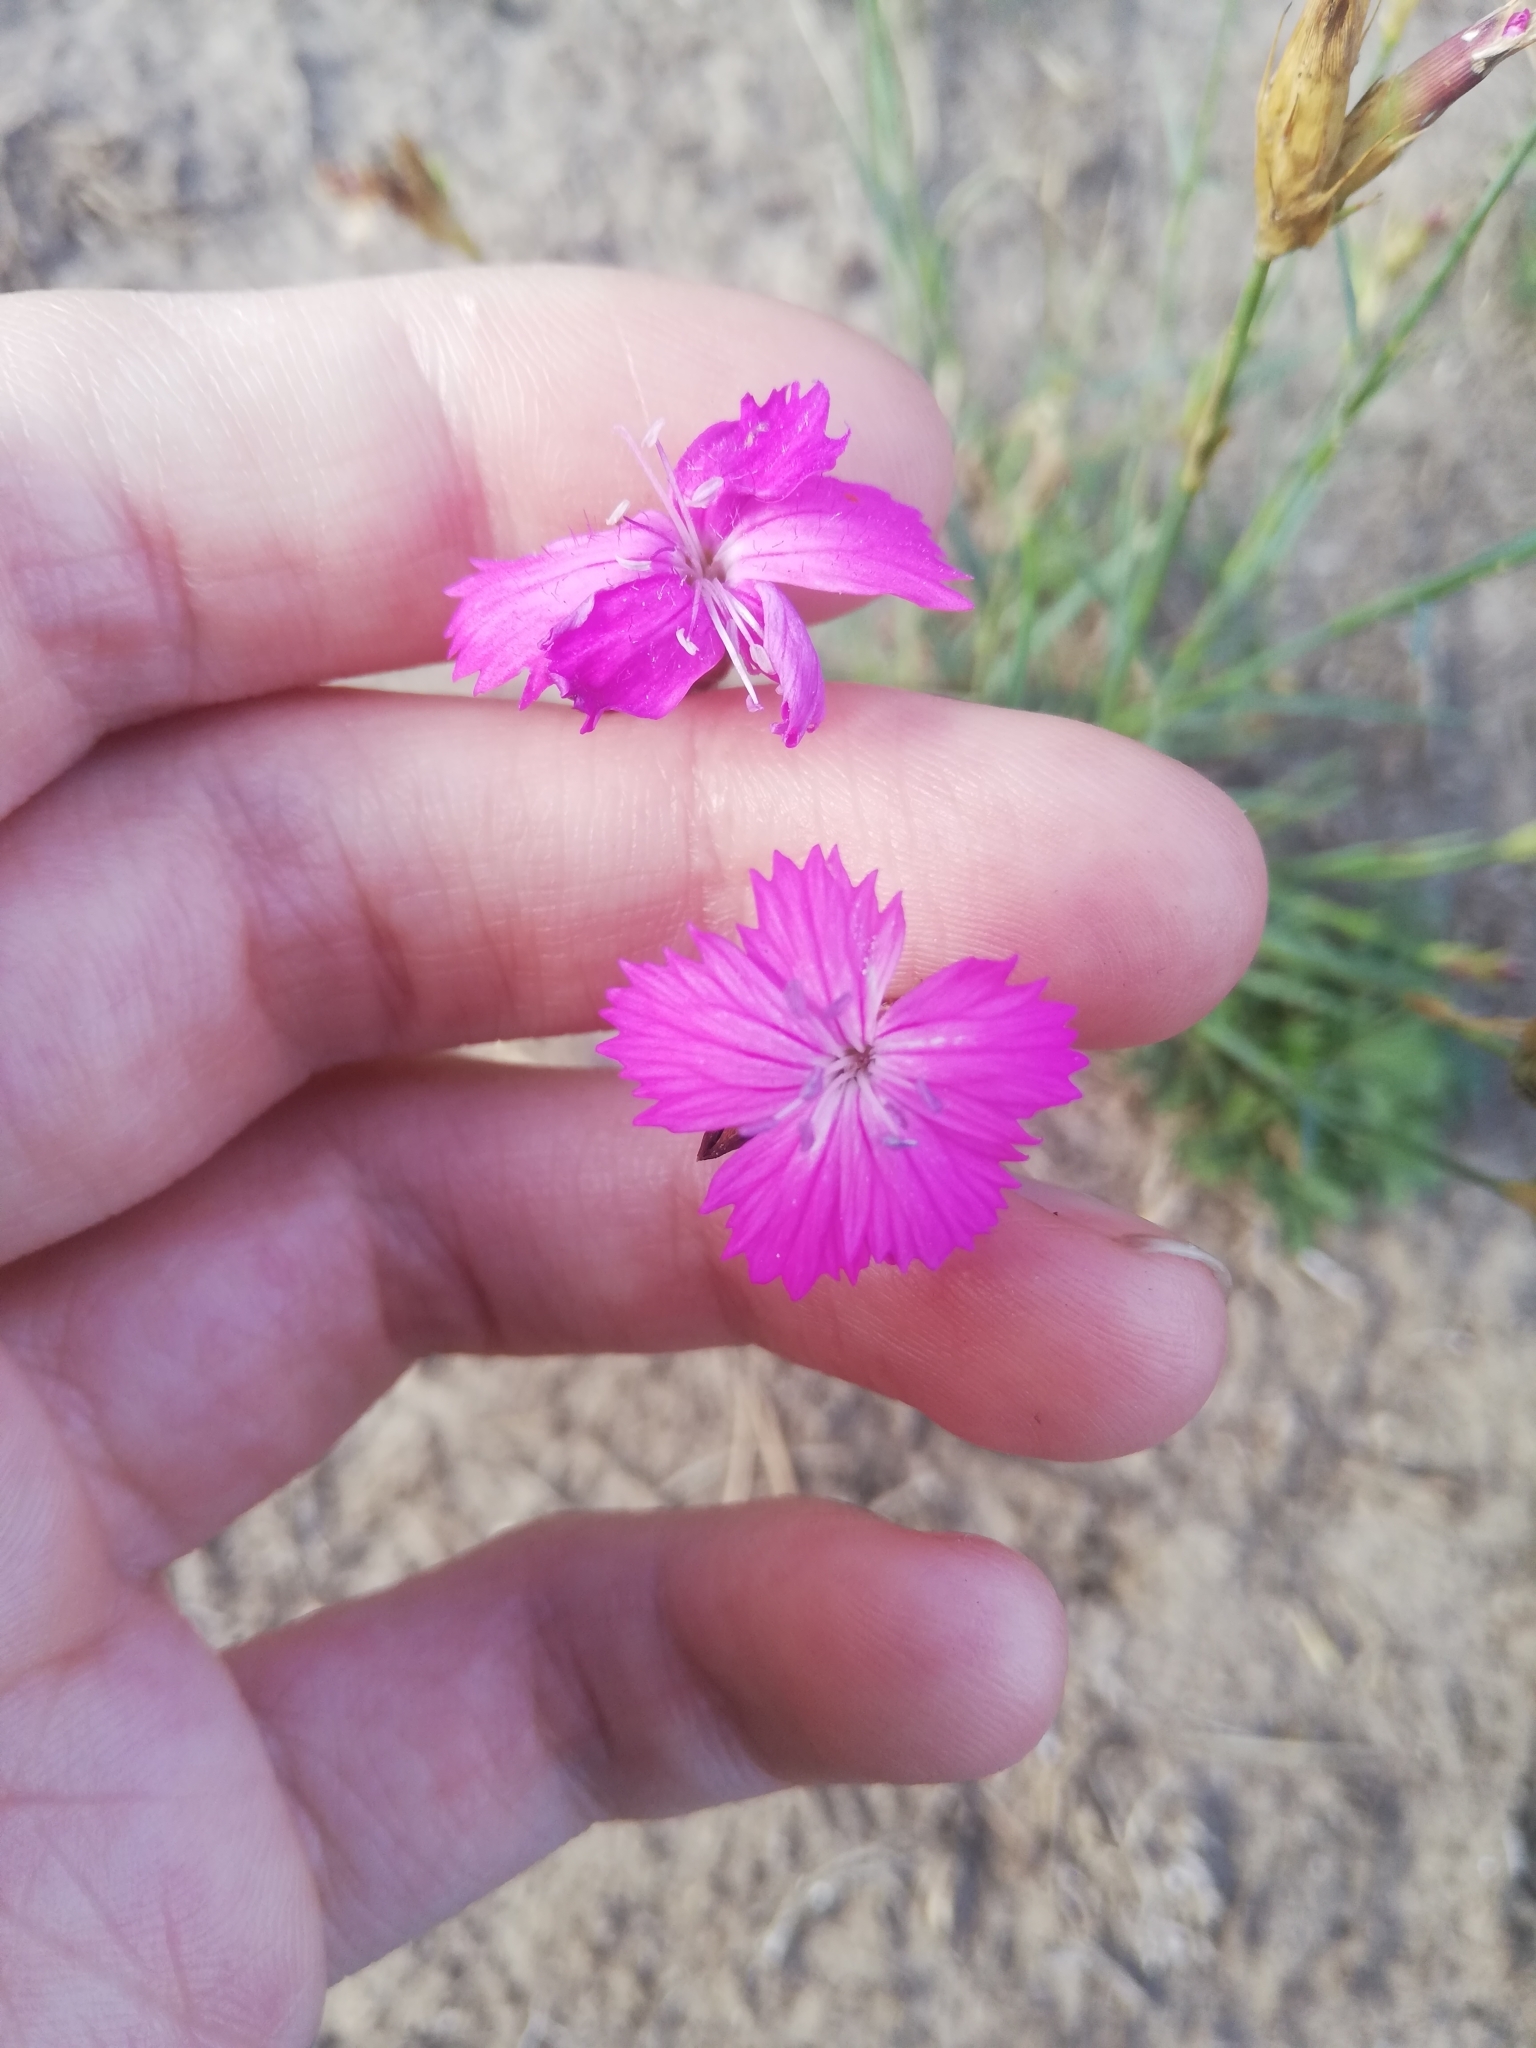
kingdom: Plantae
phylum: Tracheophyta
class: Magnoliopsida
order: Caryophyllales
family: Caryophyllaceae
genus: Dianthus
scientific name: Dianthus carthusianorum
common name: Carthusian pink
